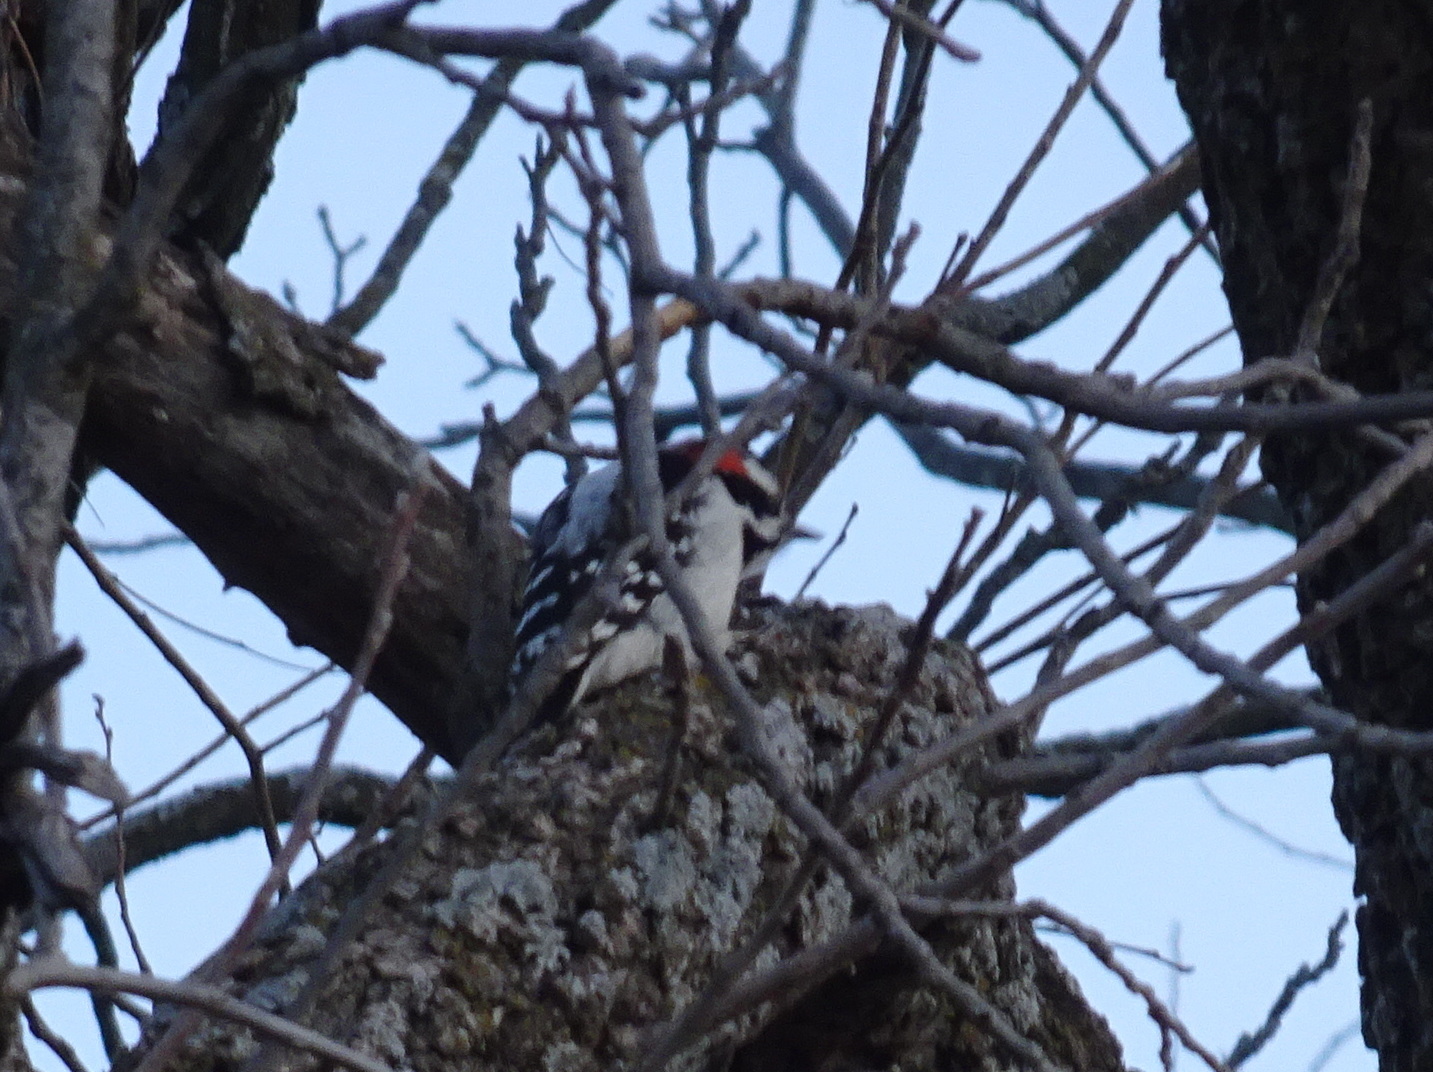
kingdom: Animalia
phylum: Chordata
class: Aves
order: Piciformes
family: Picidae
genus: Leuconotopicus
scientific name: Leuconotopicus villosus
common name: Hairy woodpecker
